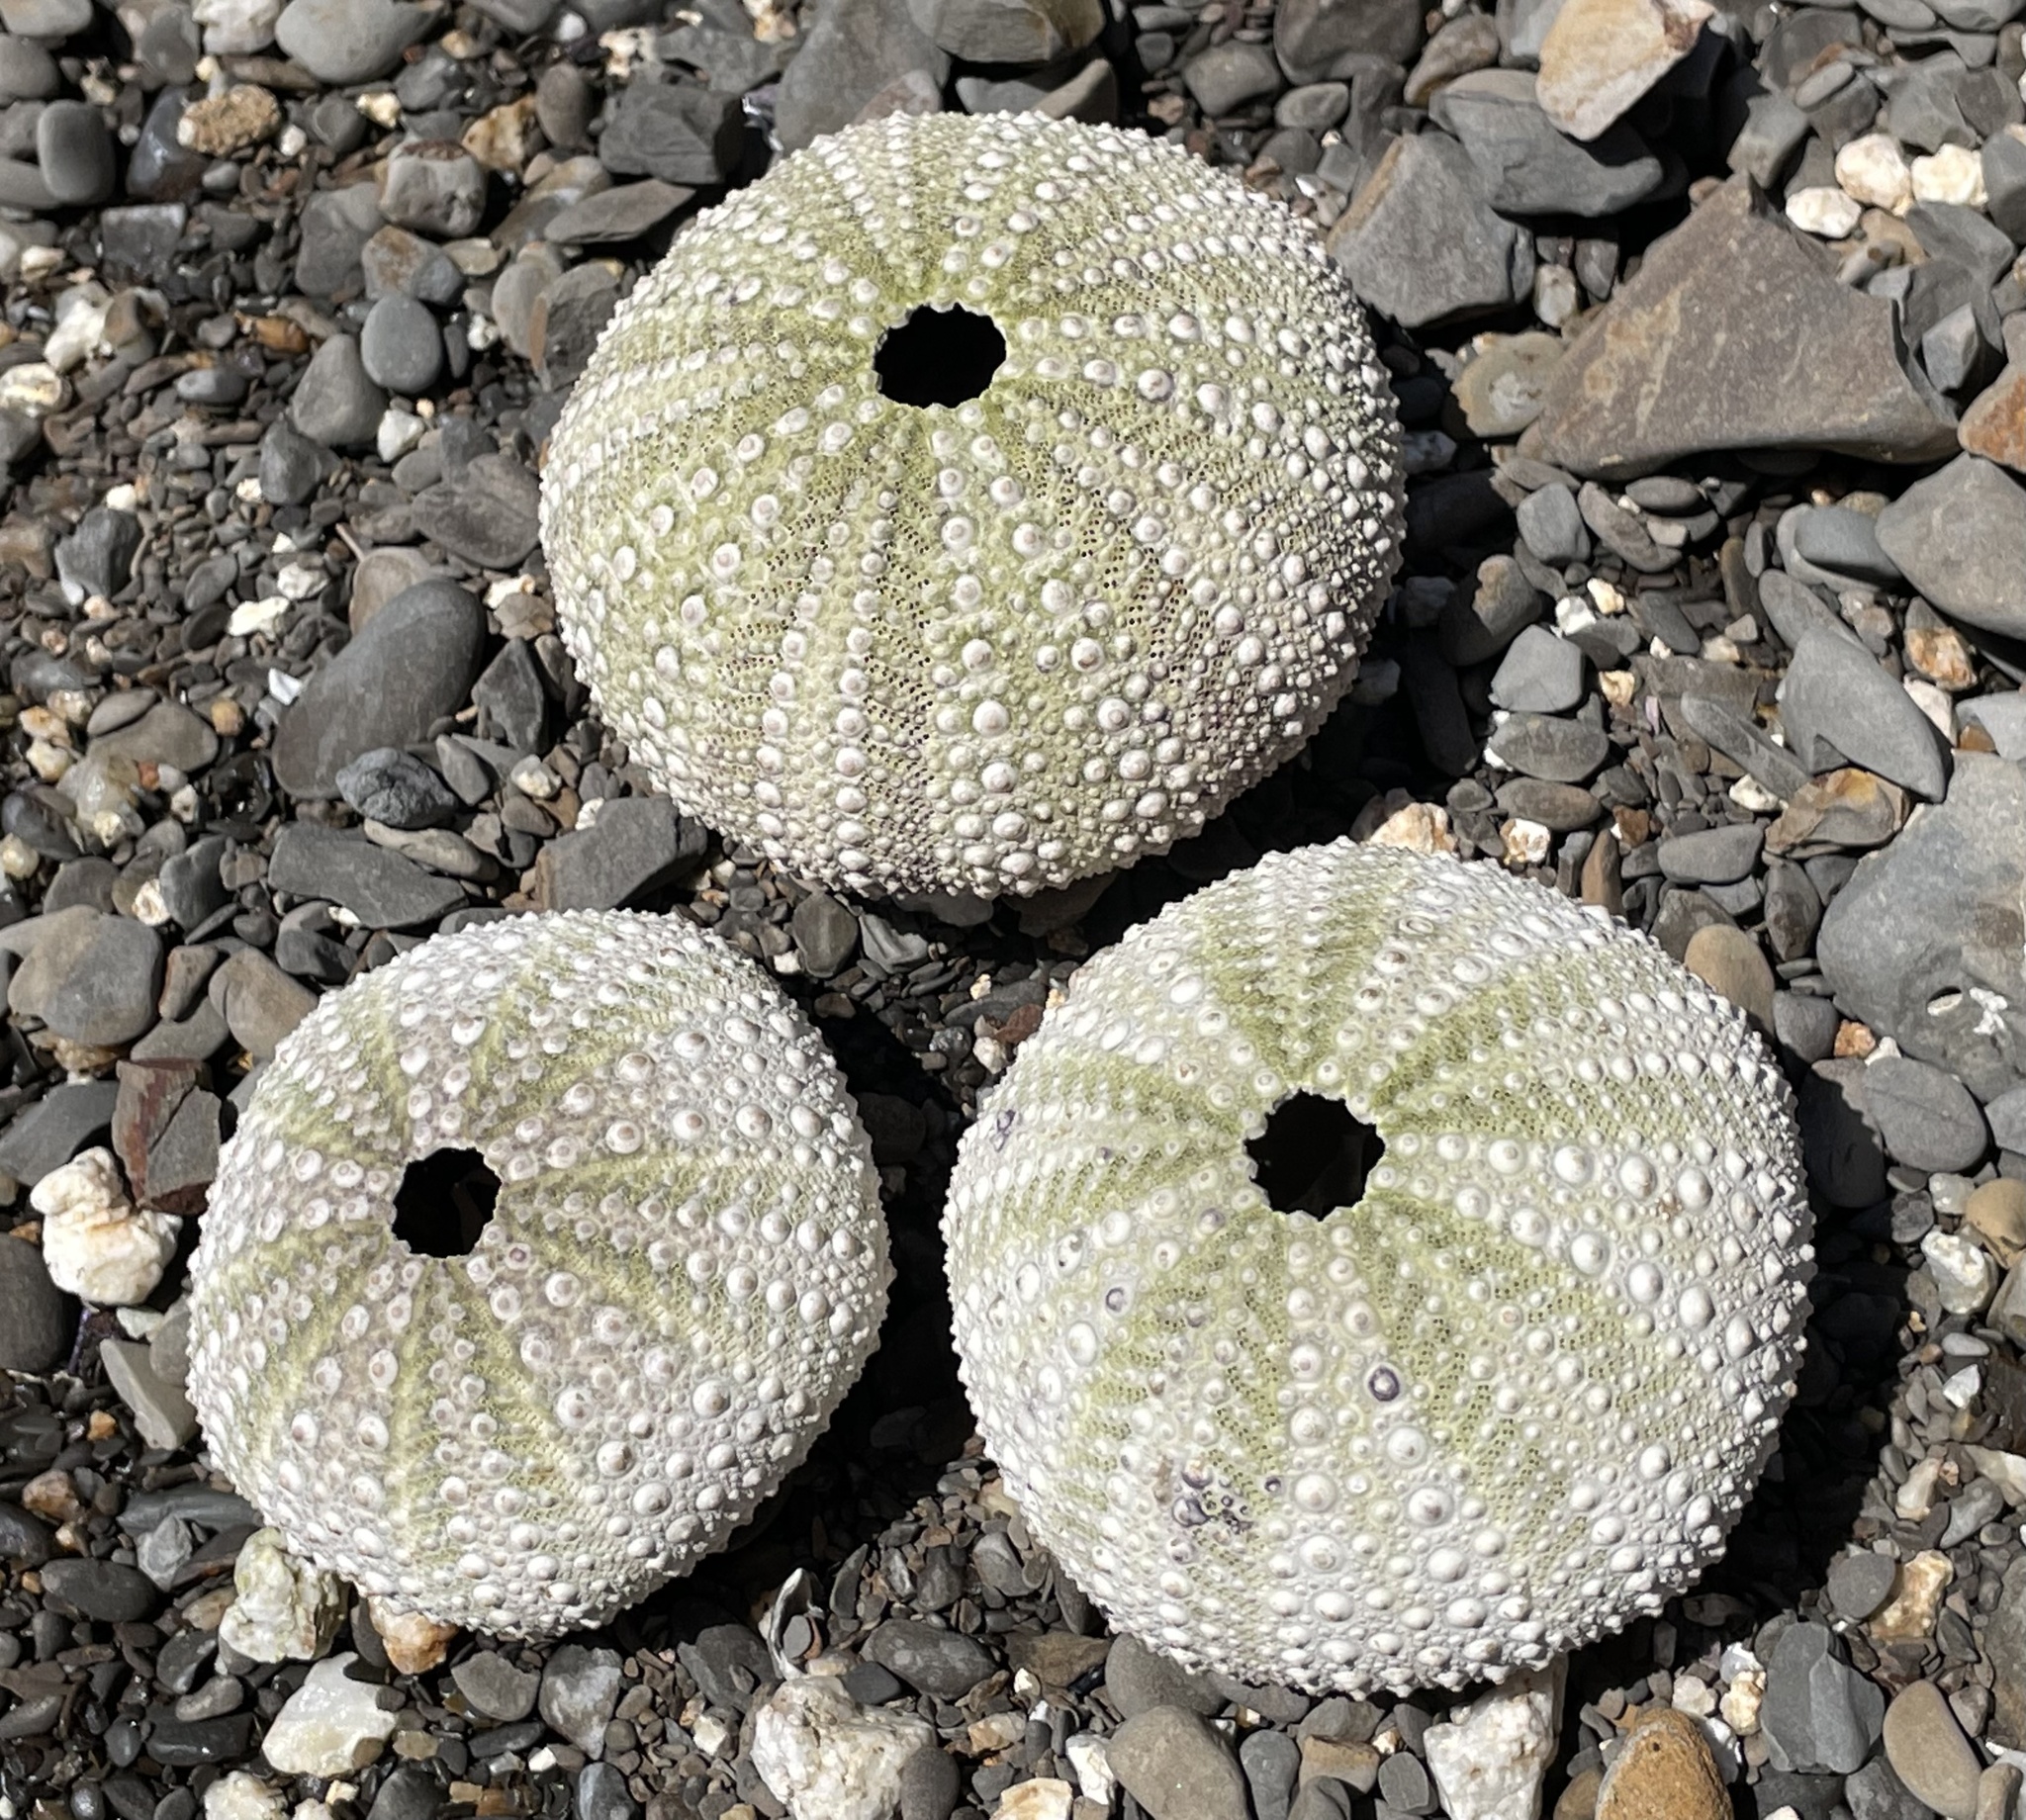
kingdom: Animalia
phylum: Echinodermata
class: Echinoidea
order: Camarodonta
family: Strongylocentrotidae
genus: Strongylocentrotus
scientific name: Strongylocentrotus purpuratus
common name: Purple sea urchin
